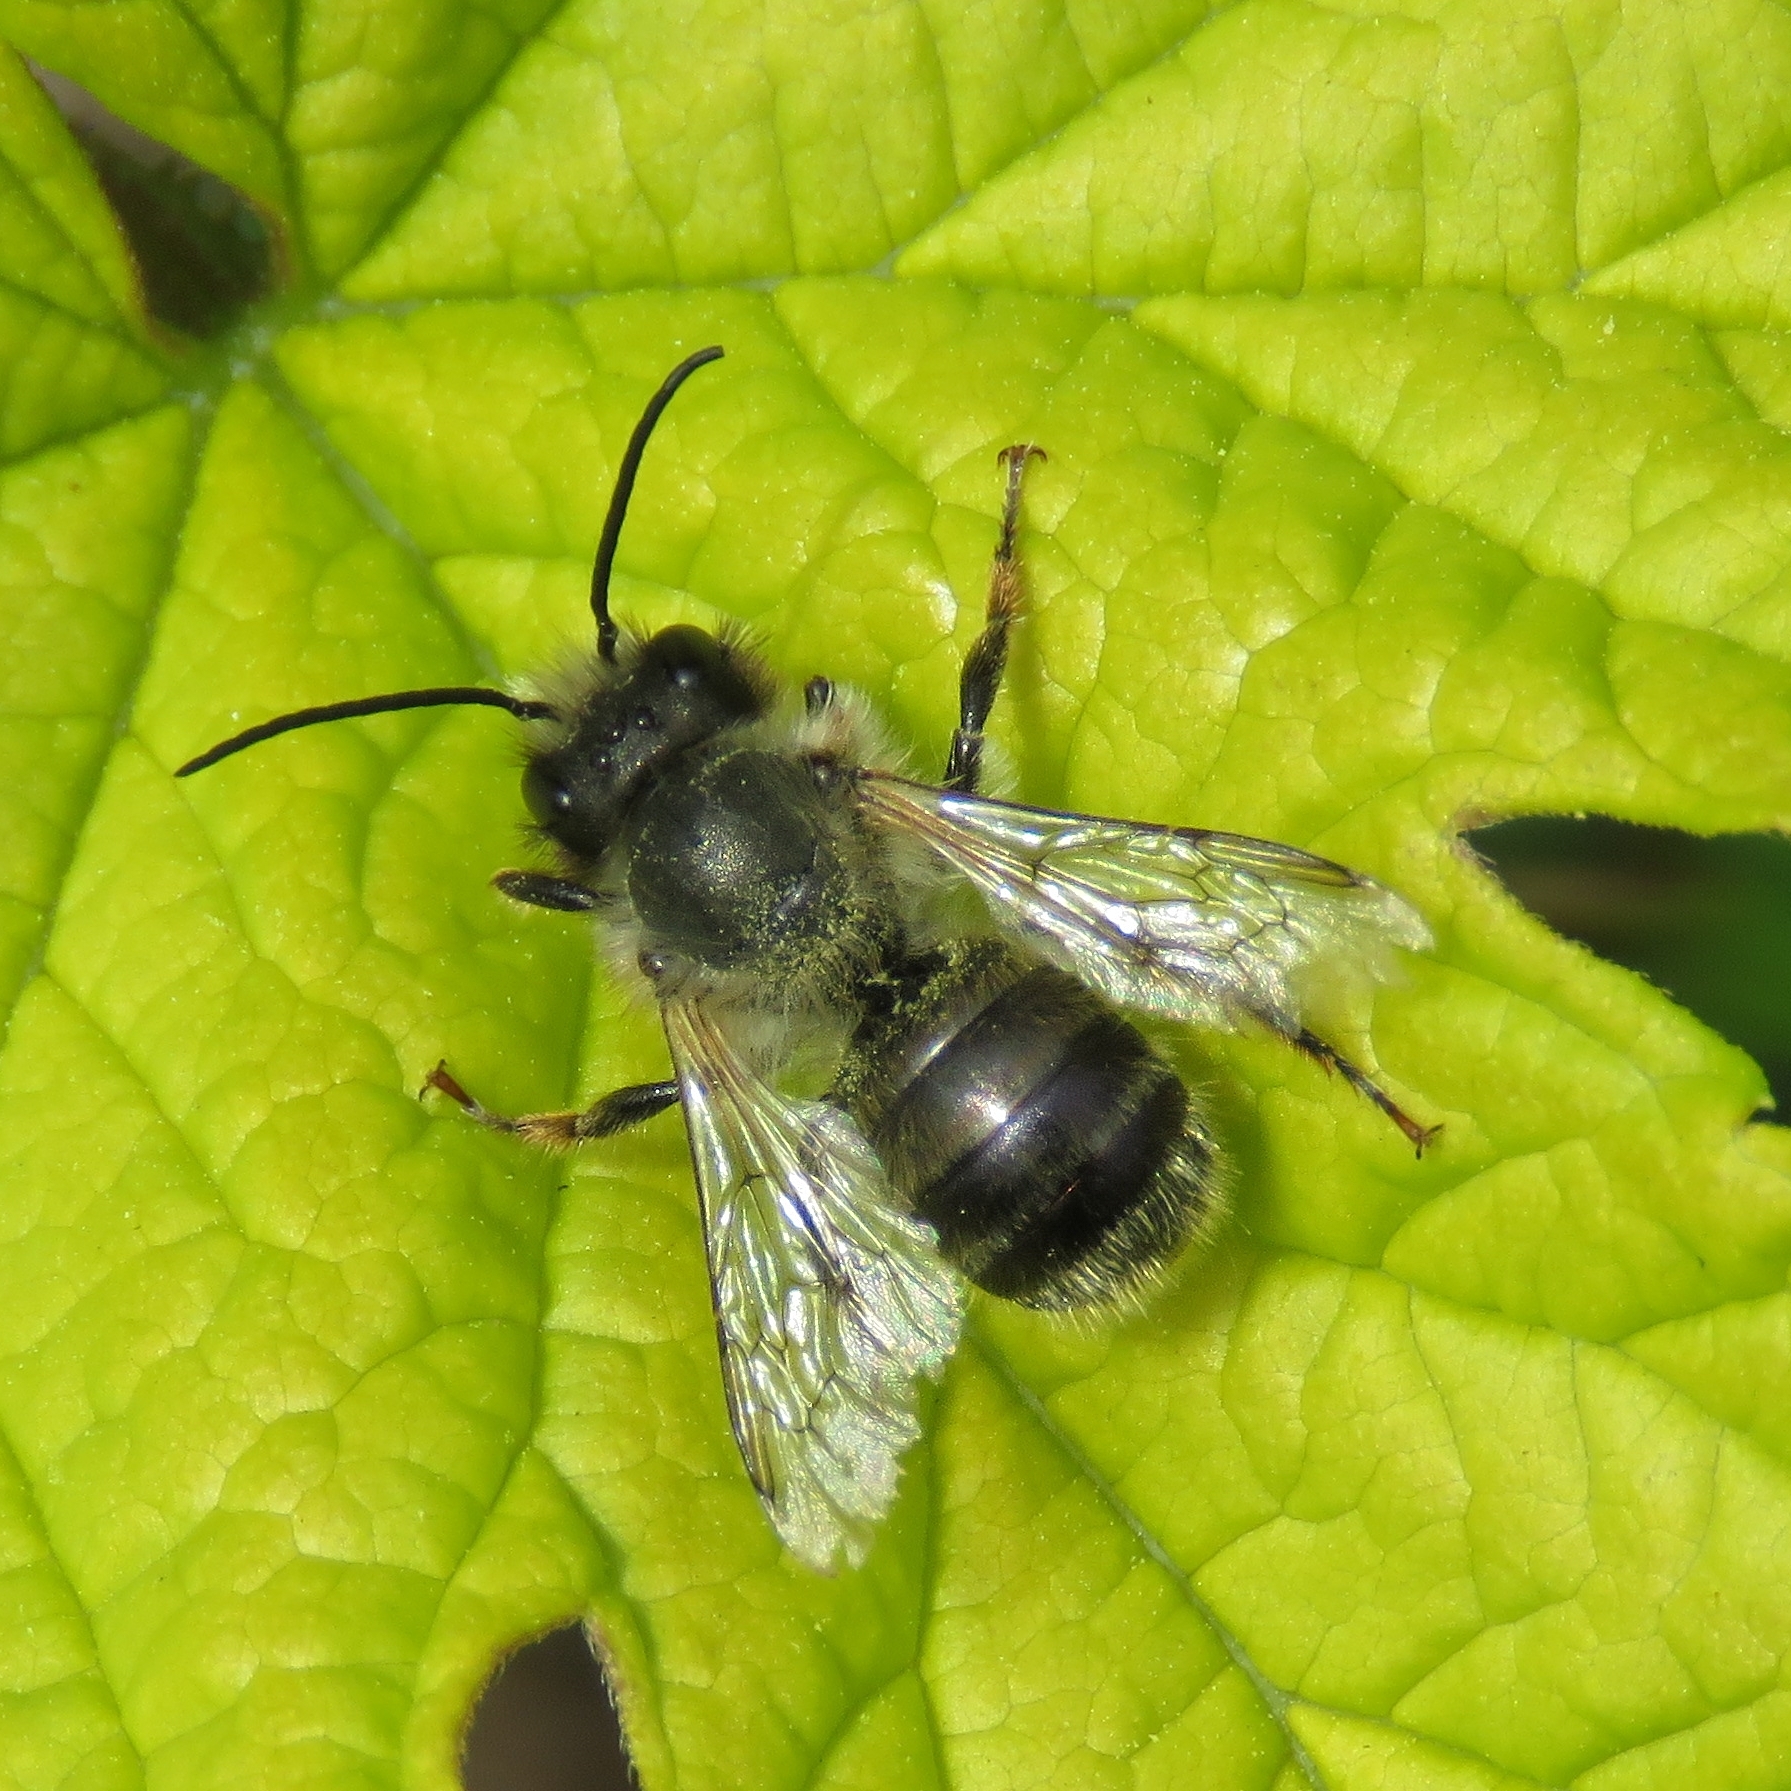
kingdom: Animalia
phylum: Arthropoda
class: Insecta
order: Hymenoptera
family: Megachilidae
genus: Osmia
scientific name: Osmia bicornis
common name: Red mason bee
